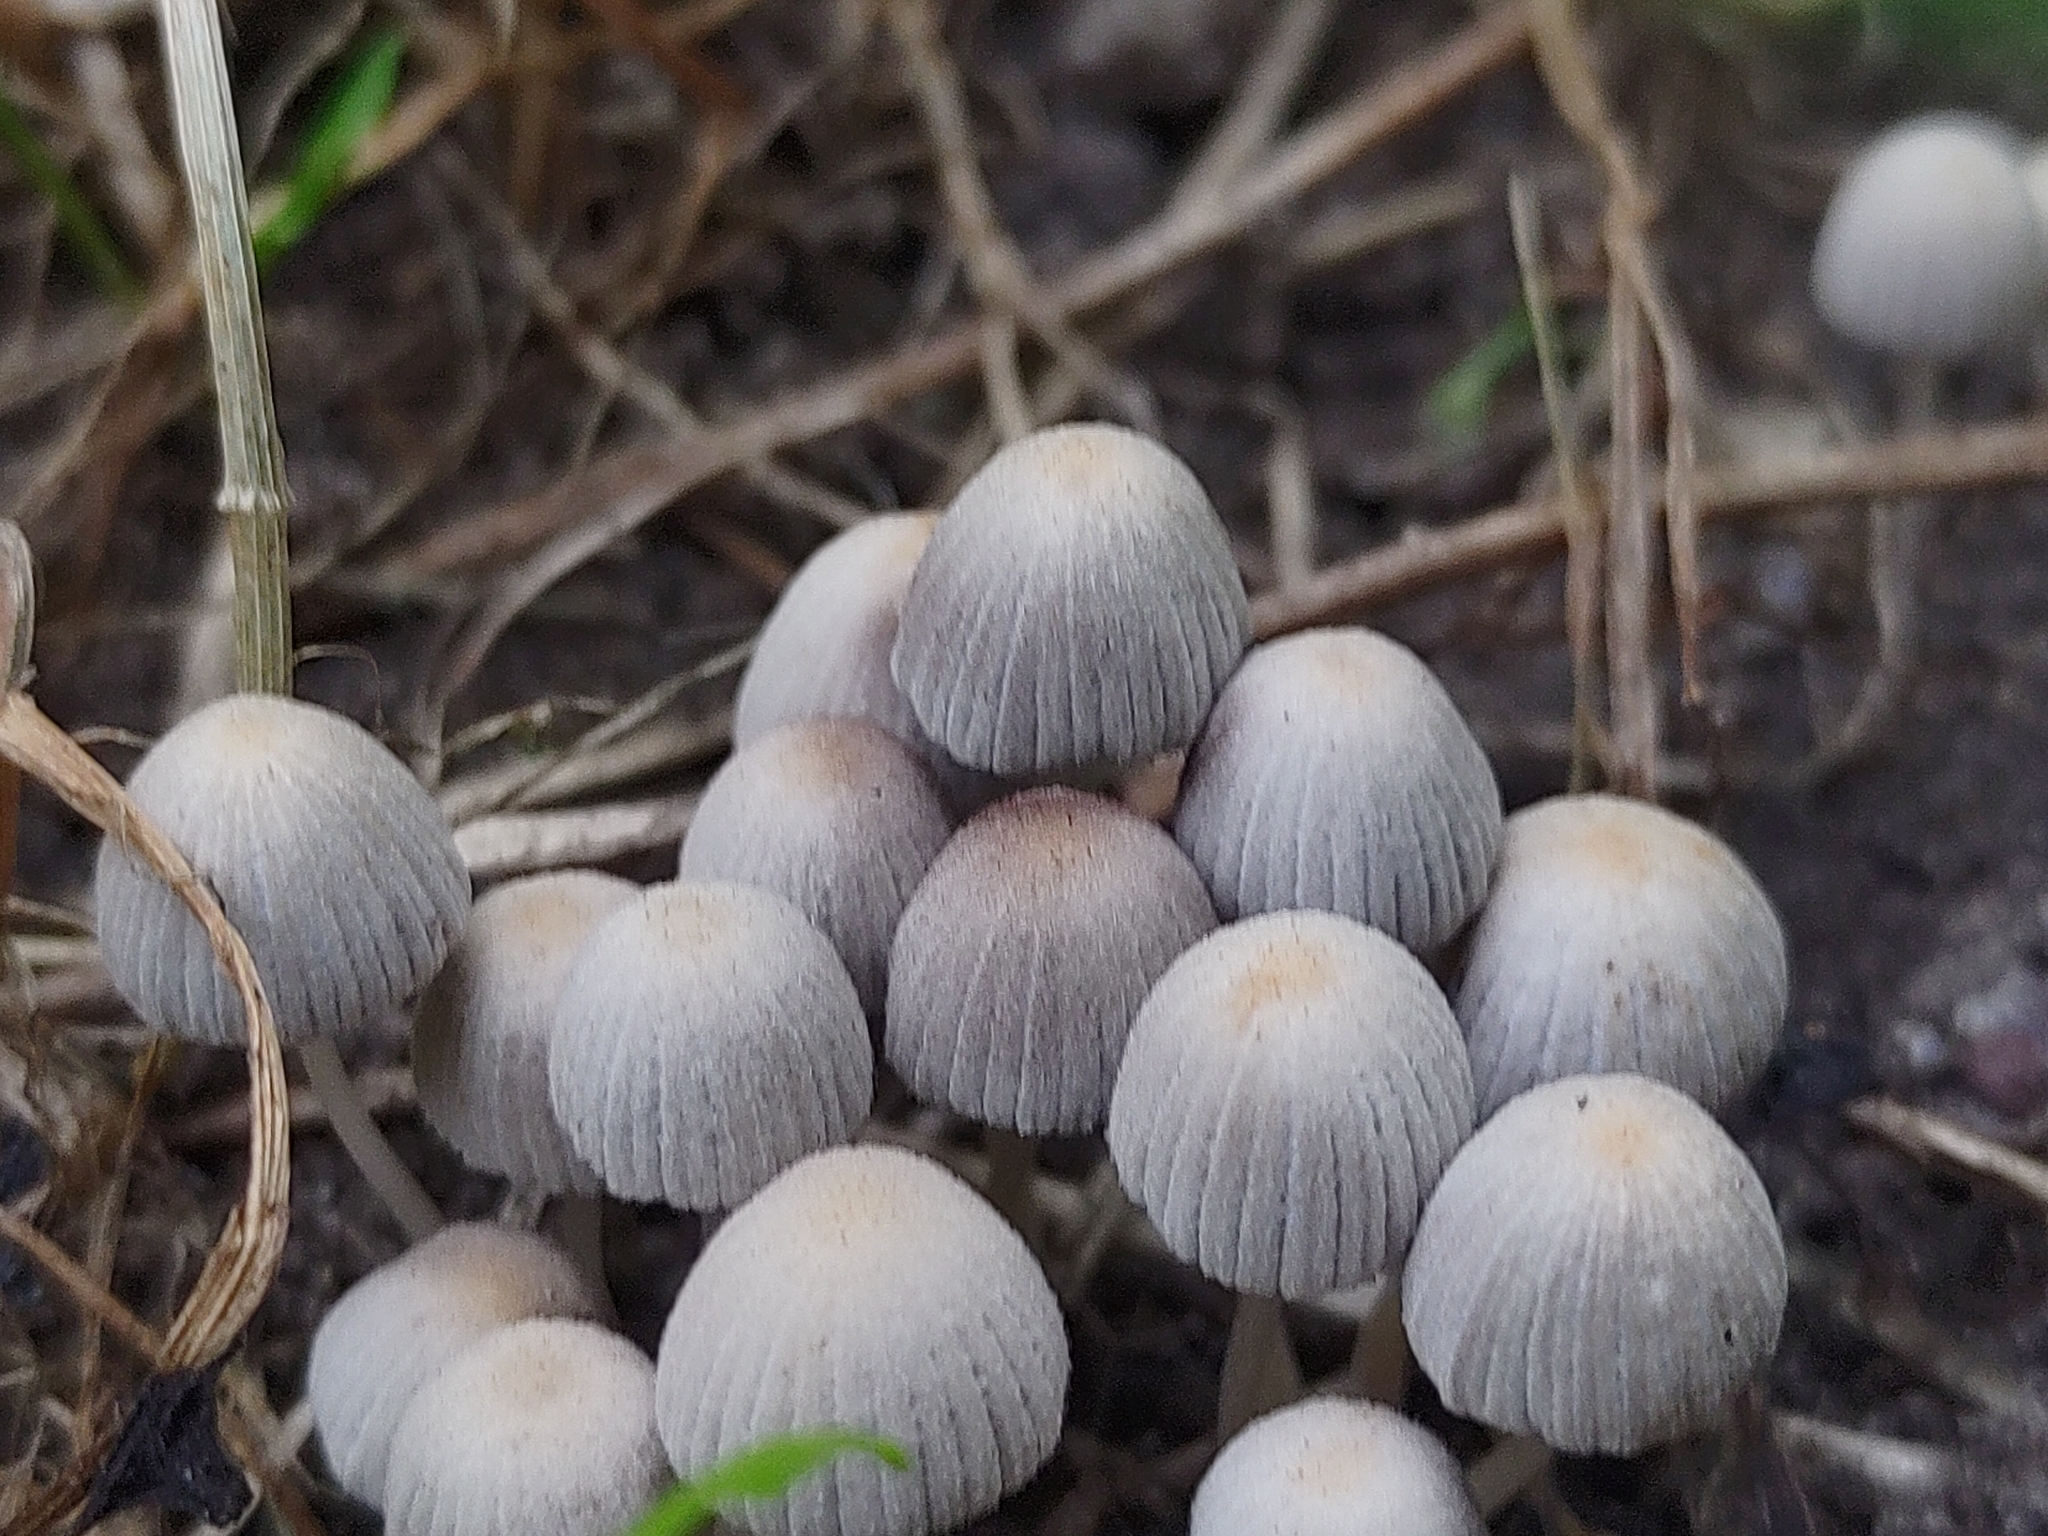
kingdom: Fungi
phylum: Basidiomycota
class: Agaricomycetes
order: Agaricales
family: Psathyrellaceae
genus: Coprinellus
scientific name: Coprinellus disseminatus
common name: Fairies' bonnets
